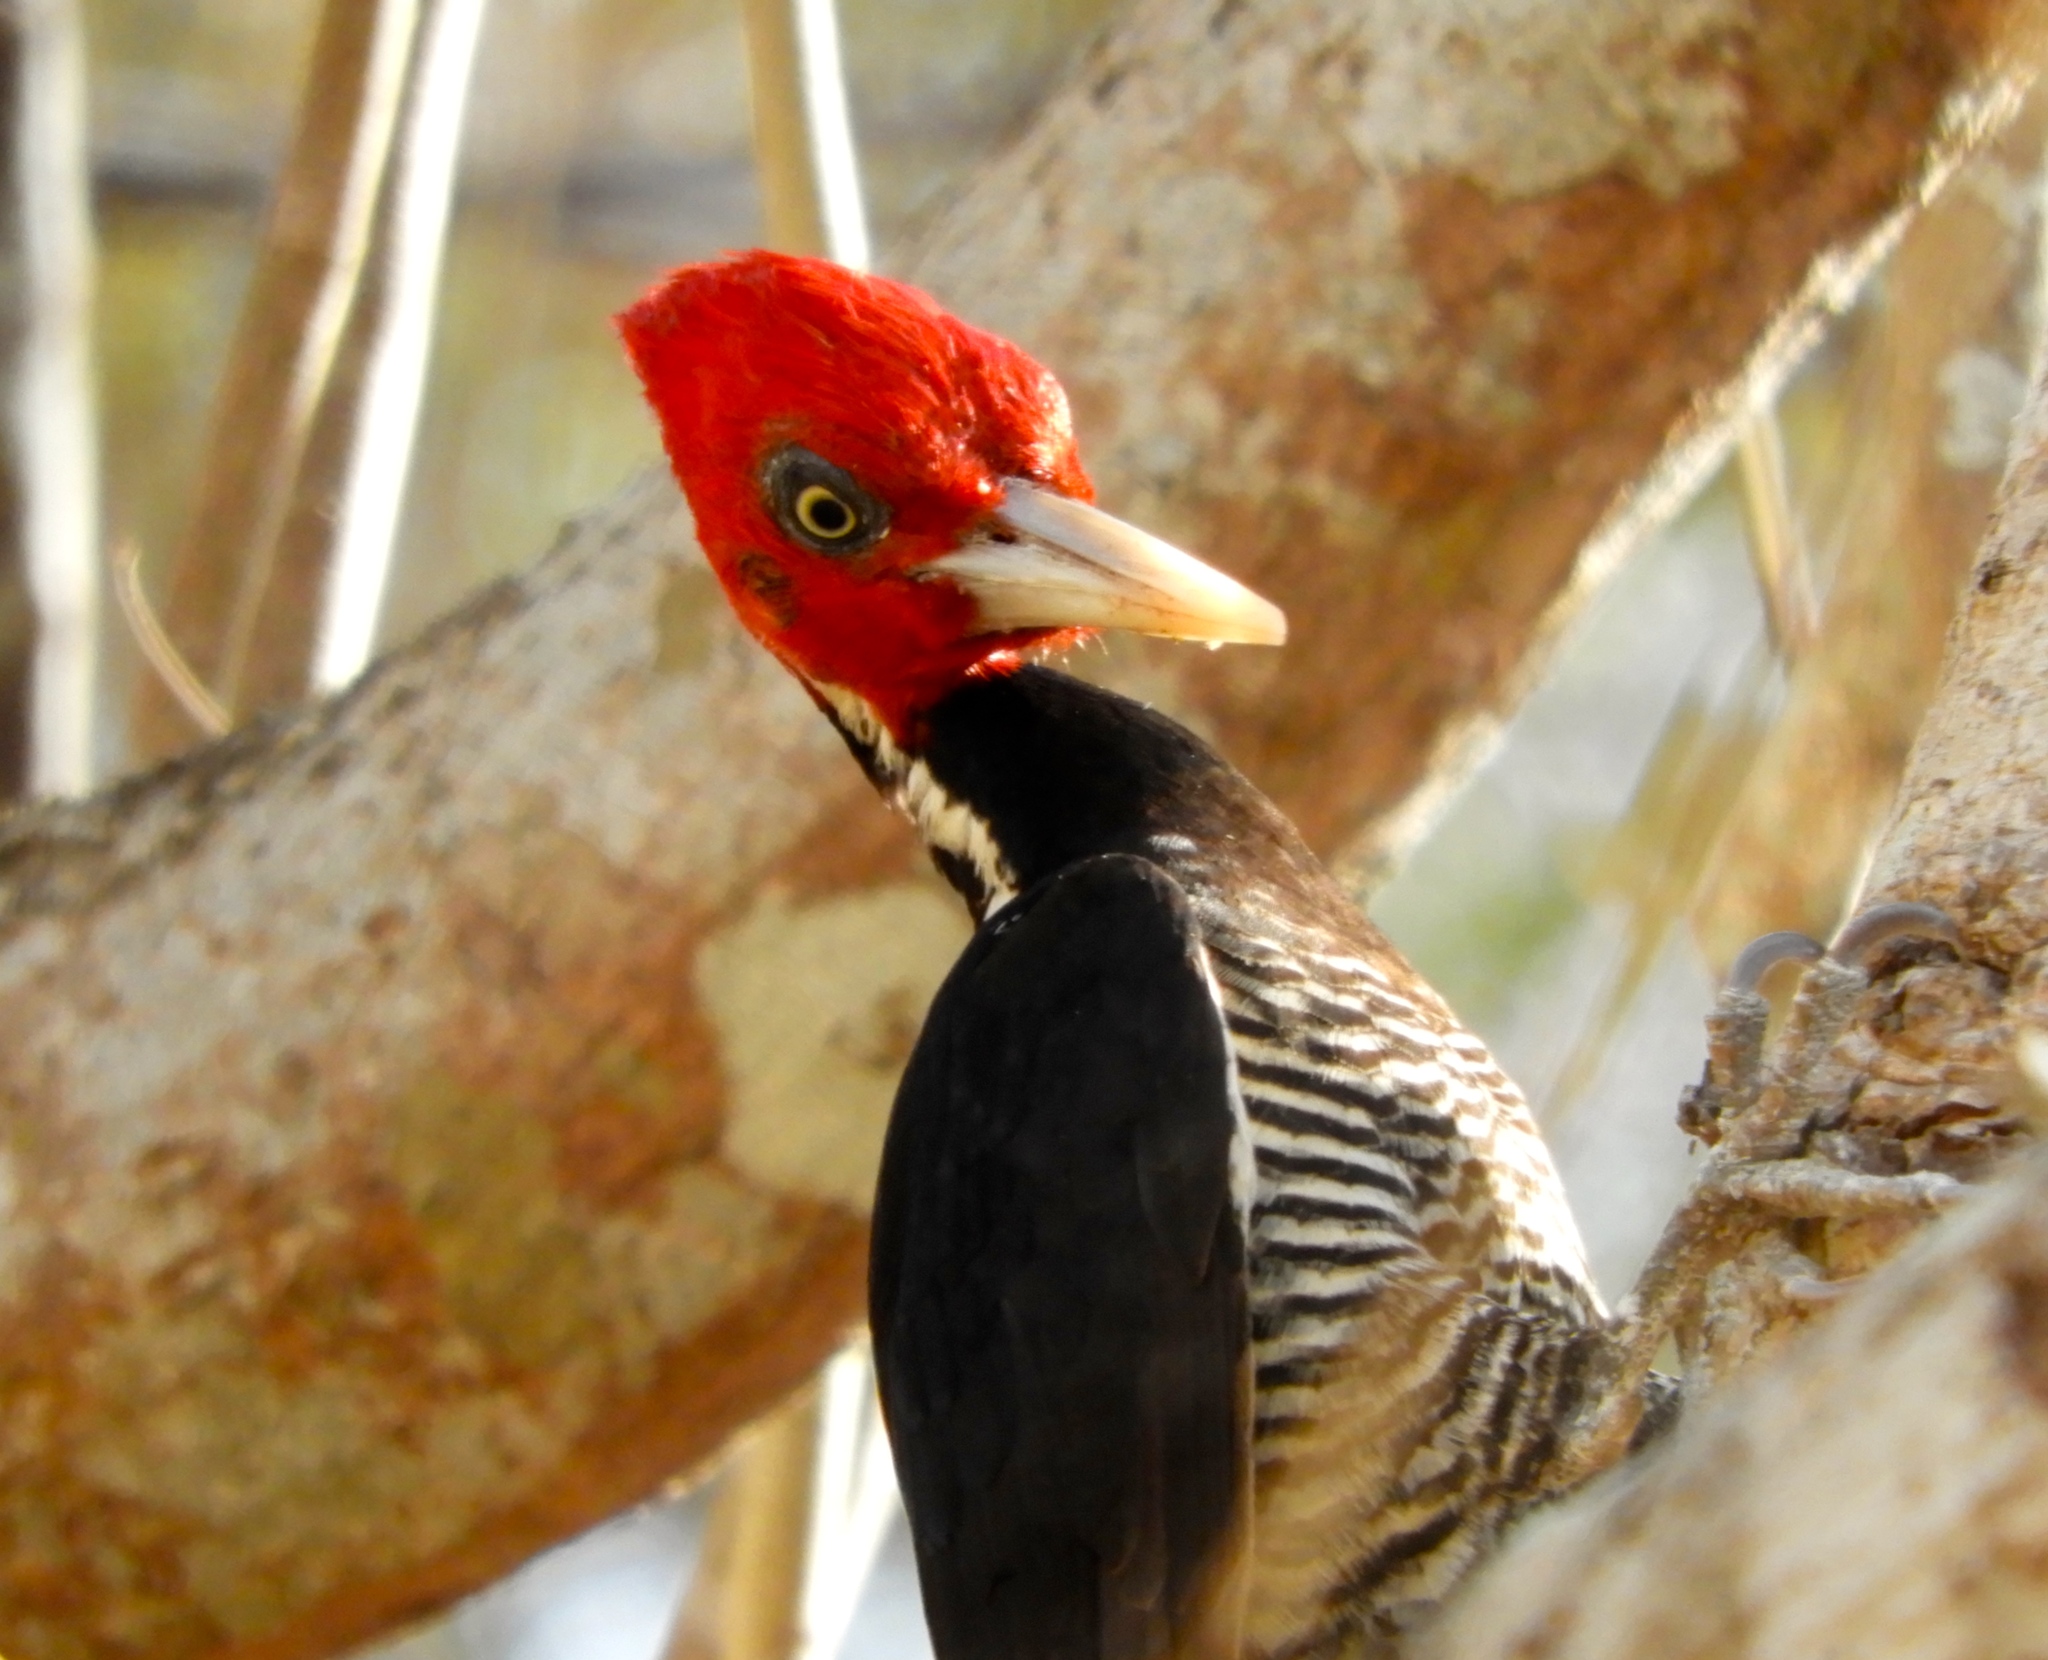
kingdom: Animalia
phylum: Chordata
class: Aves
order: Piciformes
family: Picidae
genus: Campephilus
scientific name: Campephilus guatemalensis
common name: Pale-billed woodpecker
